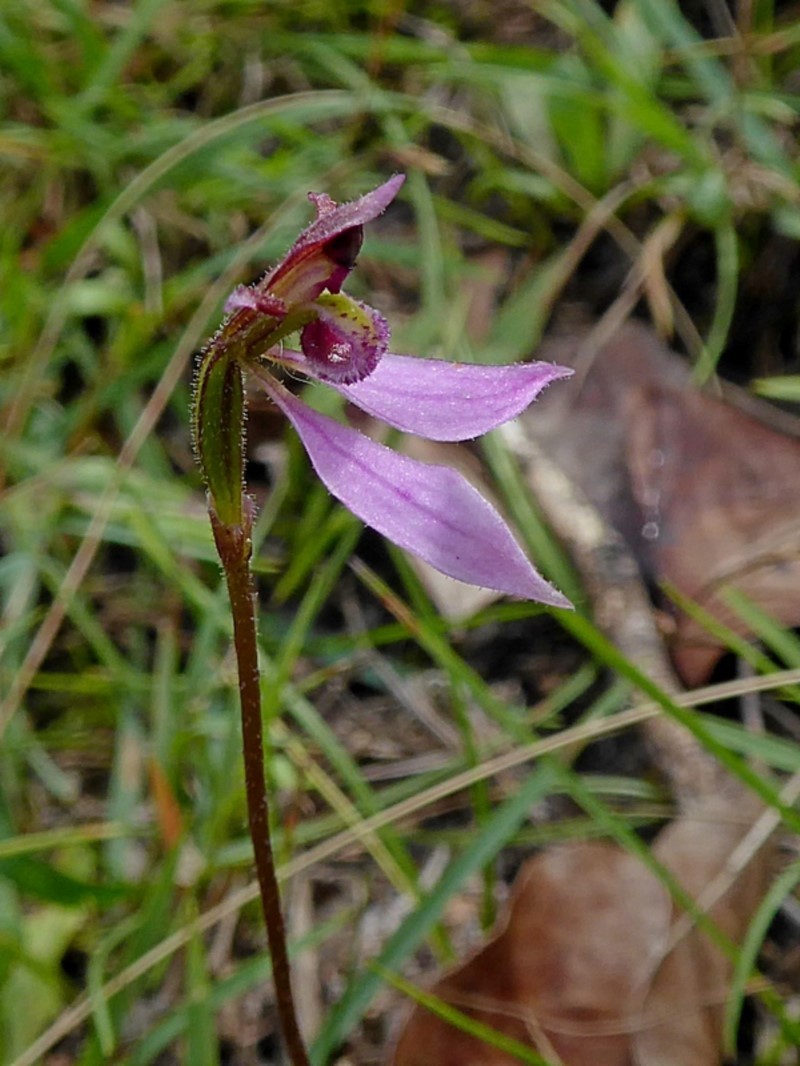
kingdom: Plantae
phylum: Tracheophyta
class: Liliopsida
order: Asparagales
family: Orchidaceae
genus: Eriochilus
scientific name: Eriochilus cucullatus
